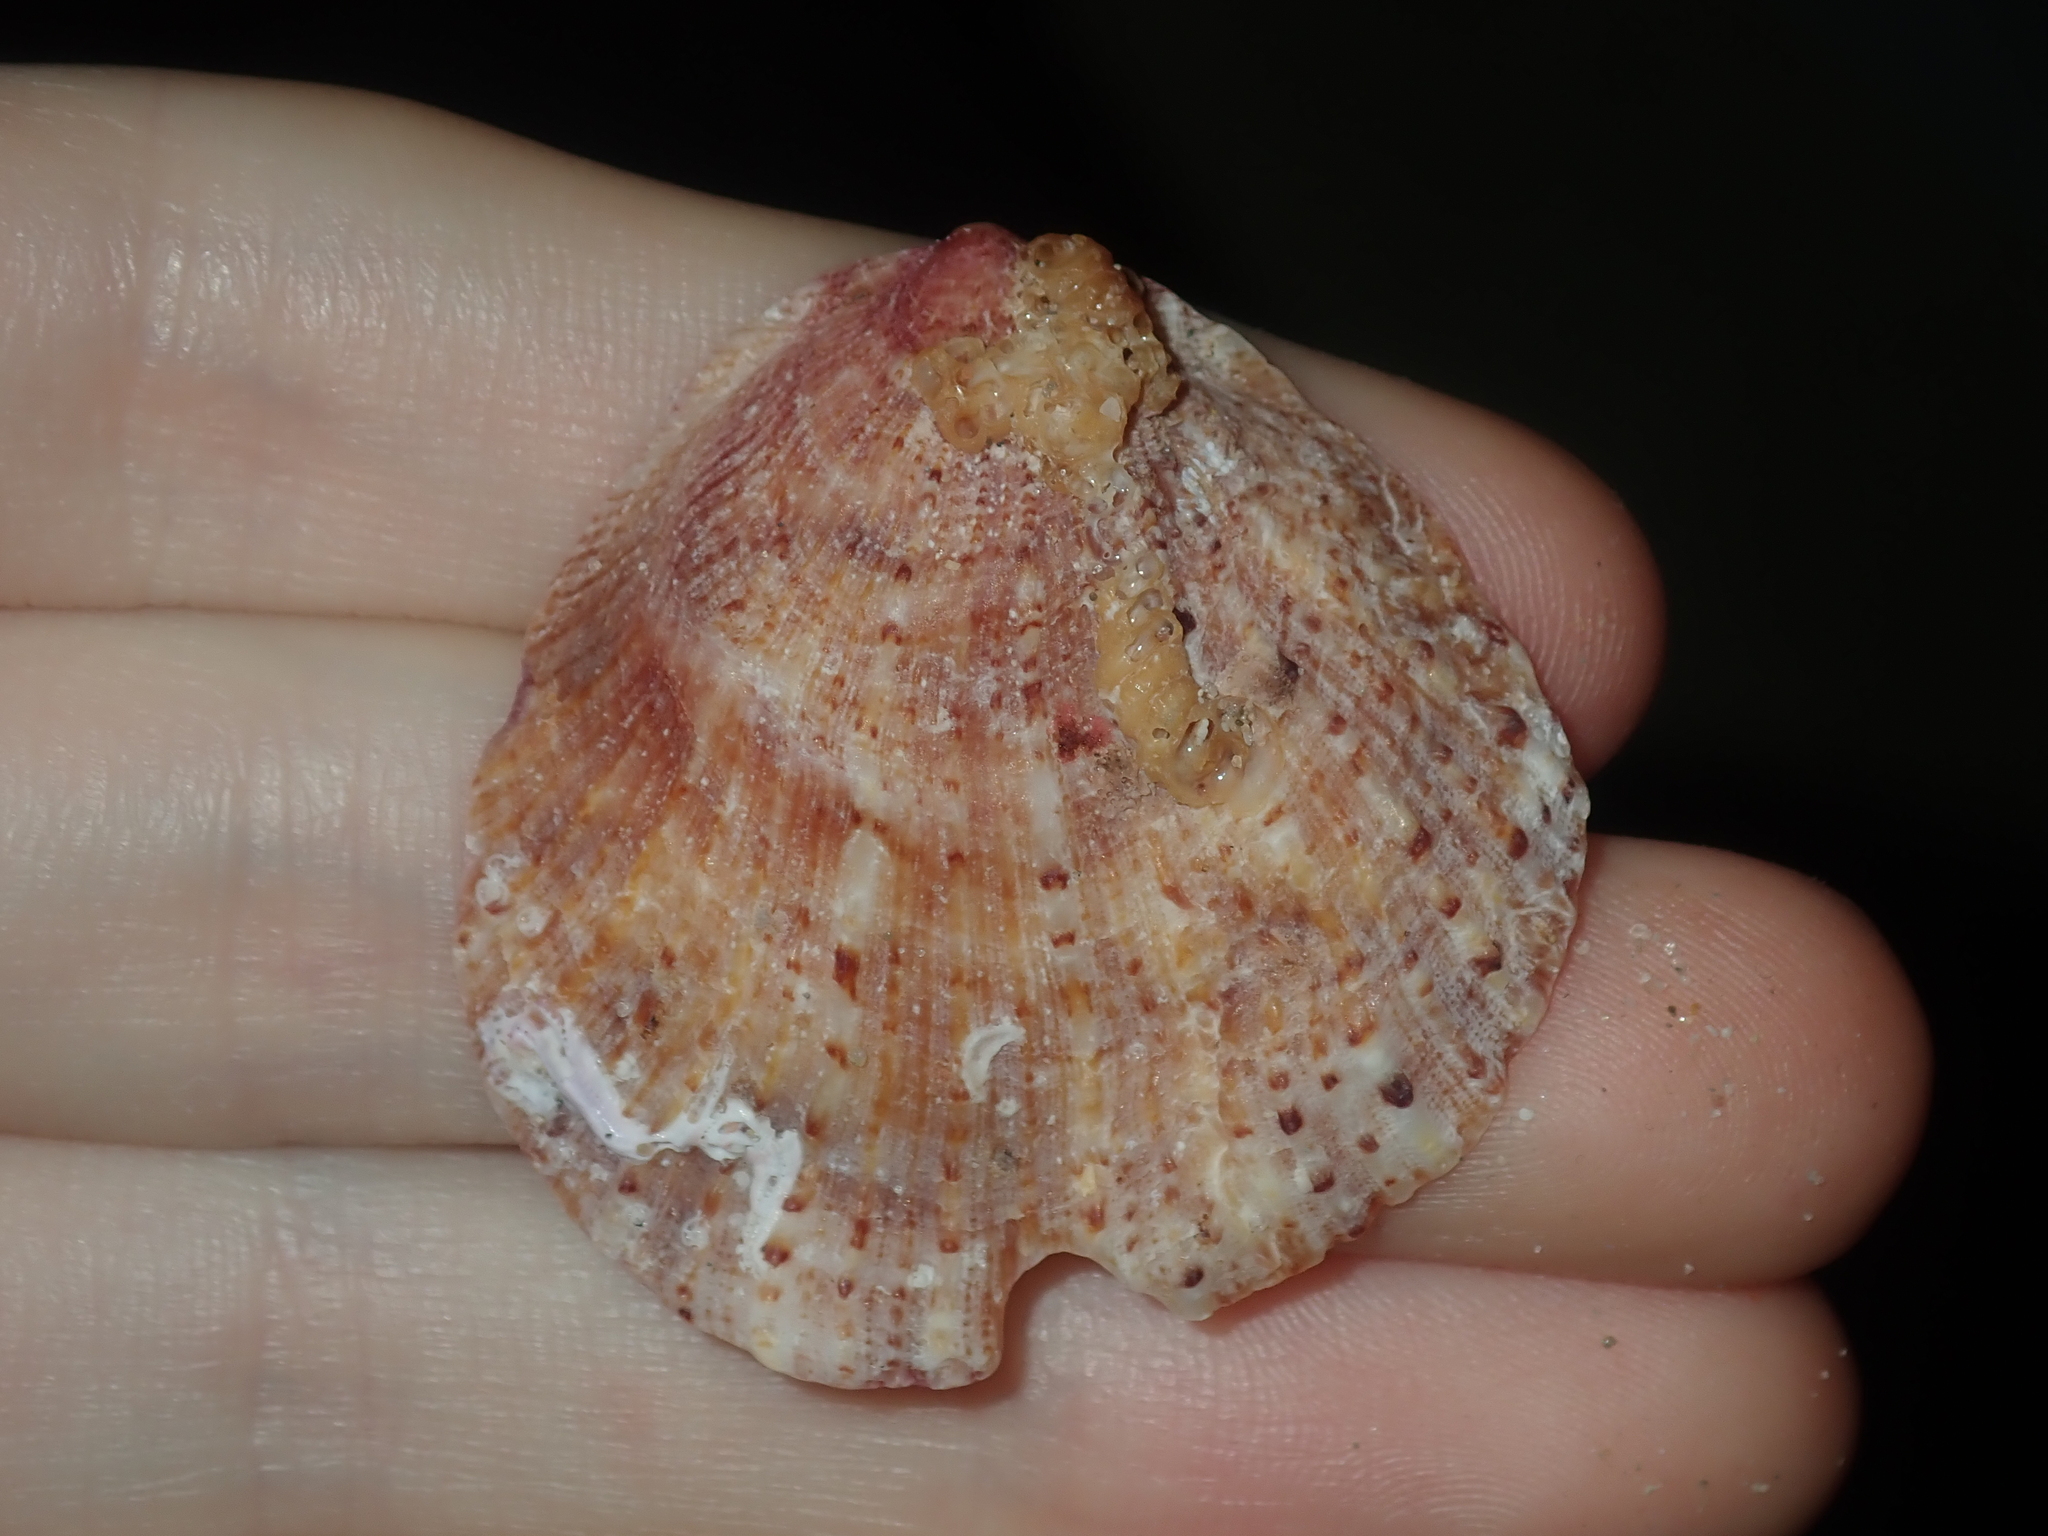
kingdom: Animalia
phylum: Mollusca
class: Bivalvia
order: Pectinida
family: Spondylidae
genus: Spondylus
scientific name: Spondylus tenellus
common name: Scarlet thorny oyster
